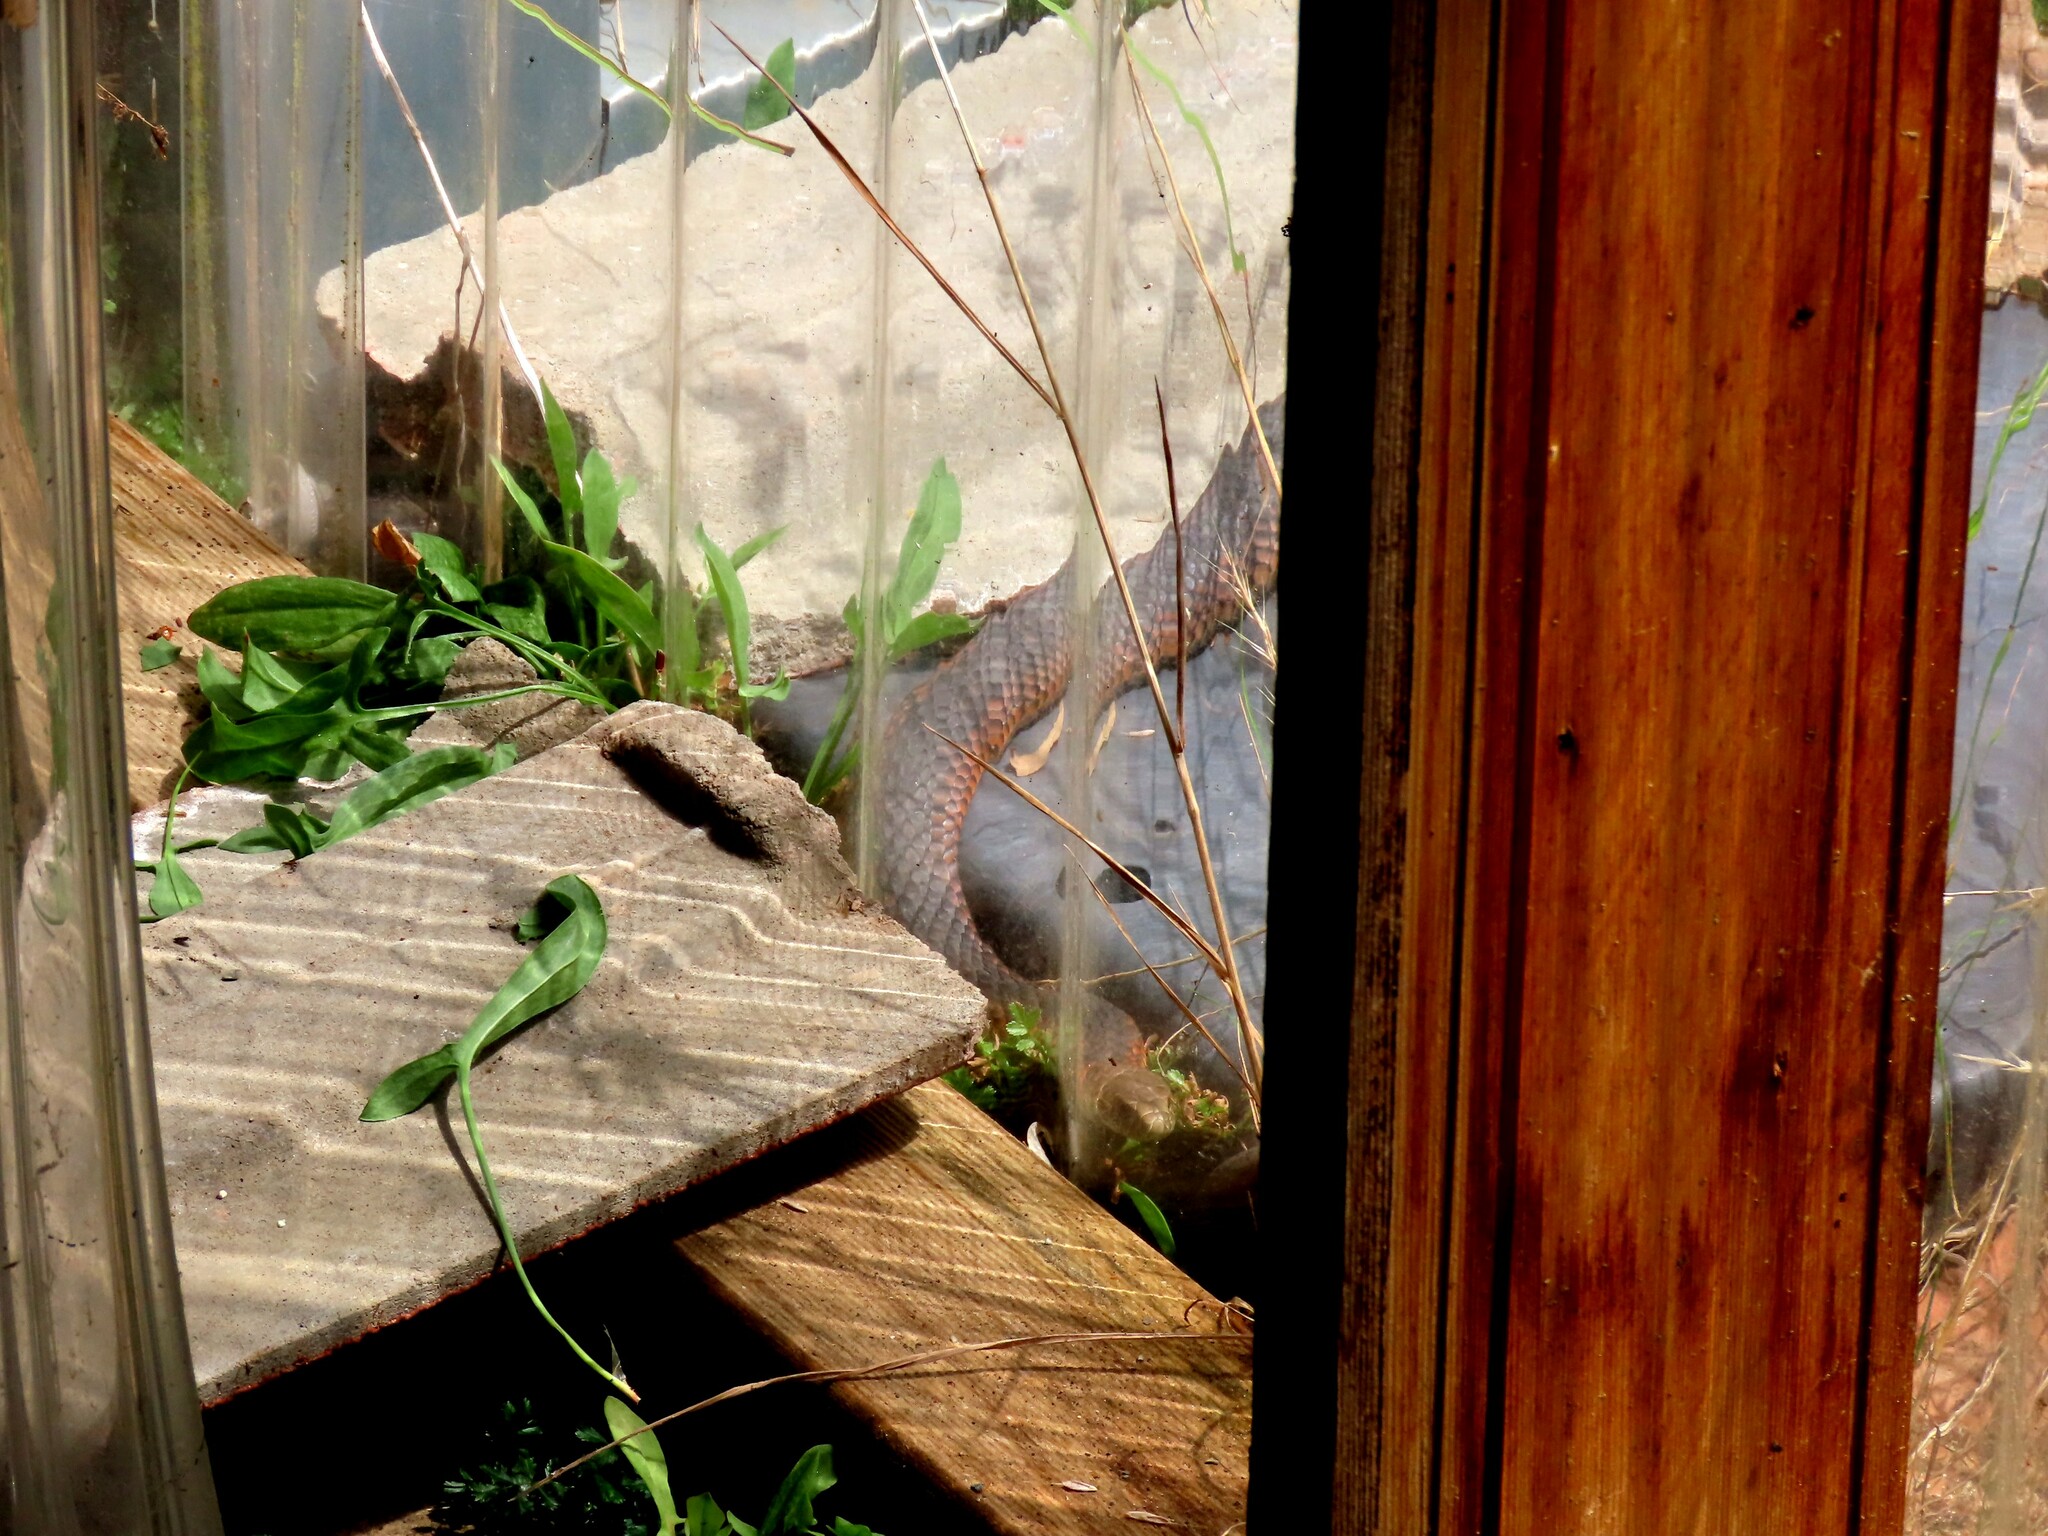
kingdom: Animalia
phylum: Chordata
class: Squamata
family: Elapidae
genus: Austrelaps
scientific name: Austrelaps superbus
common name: Copperhead snake
